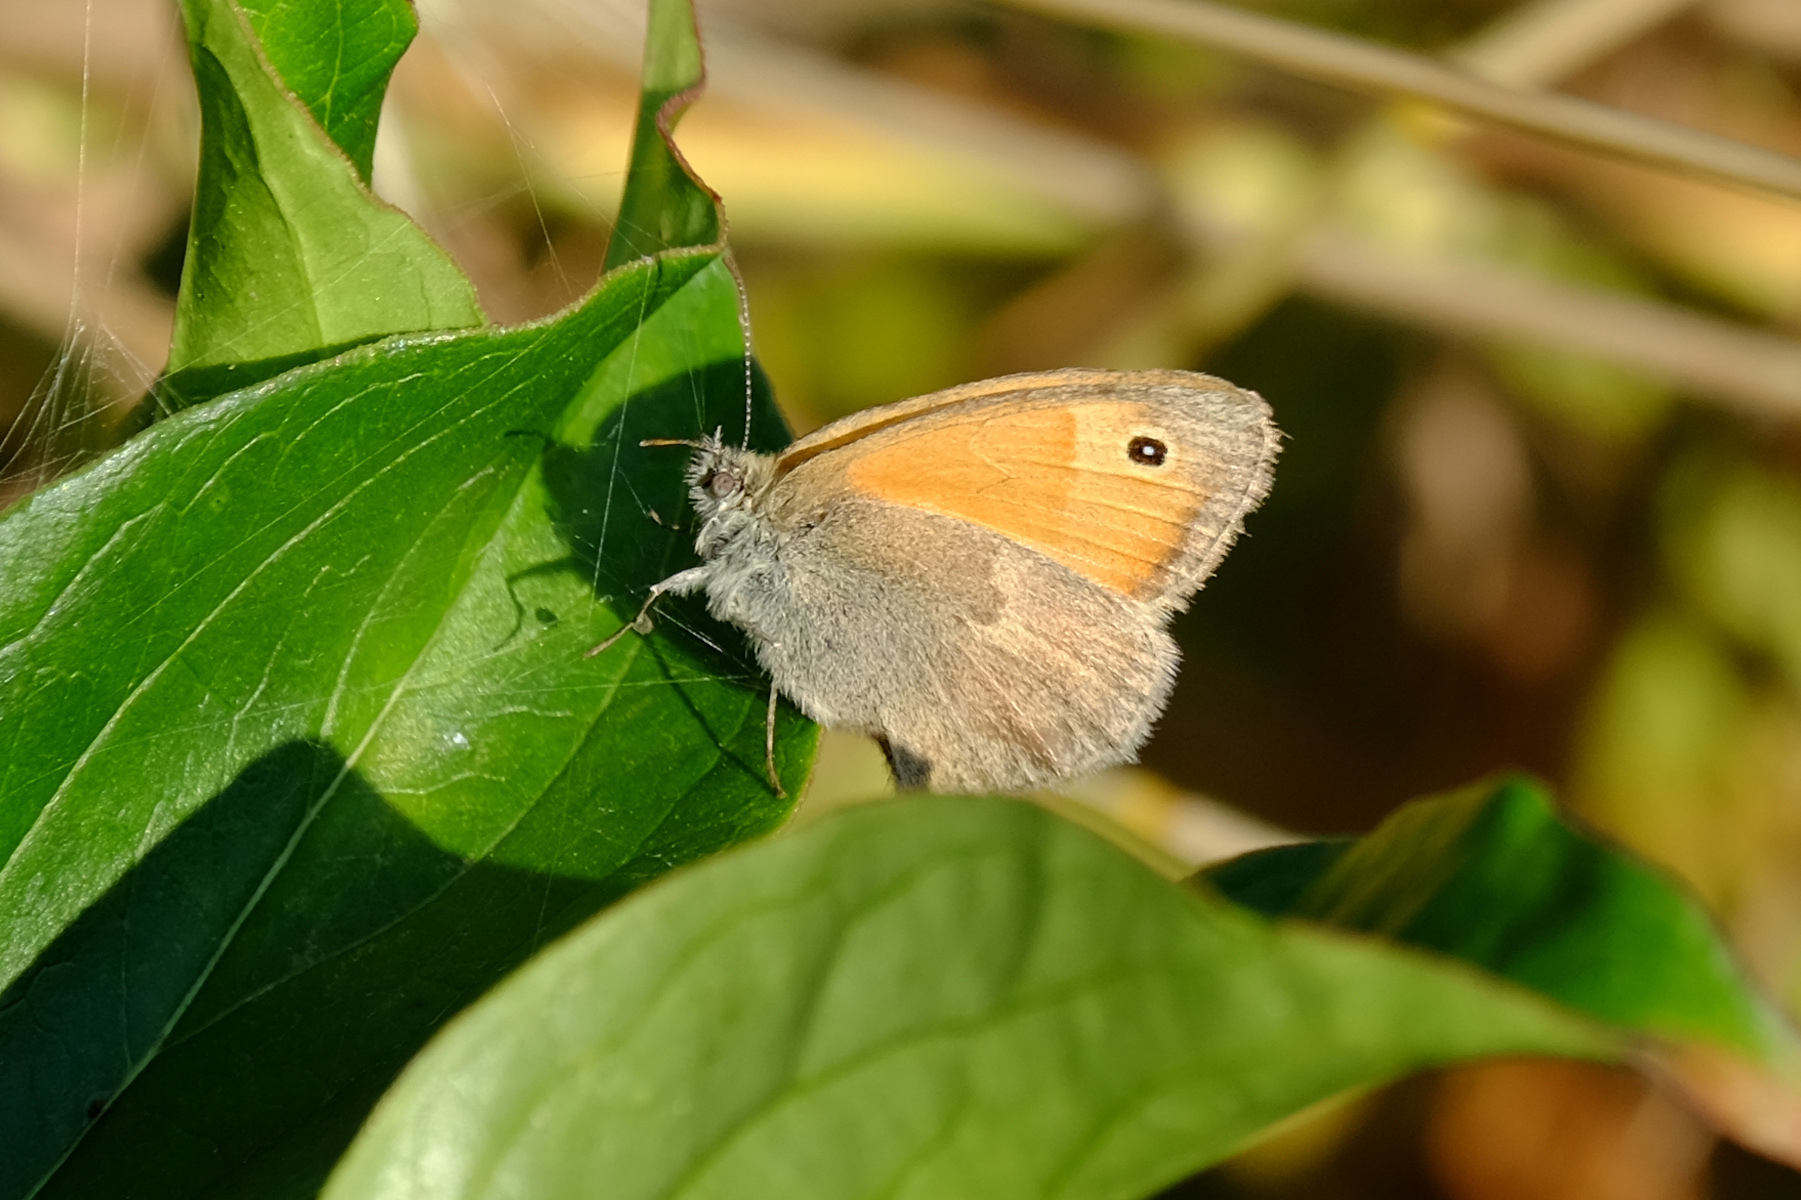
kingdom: Animalia
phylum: Arthropoda
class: Insecta
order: Lepidoptera
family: Nymphalidae
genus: Coenonympha
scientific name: Coenonympha pamphilus
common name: Small heath
